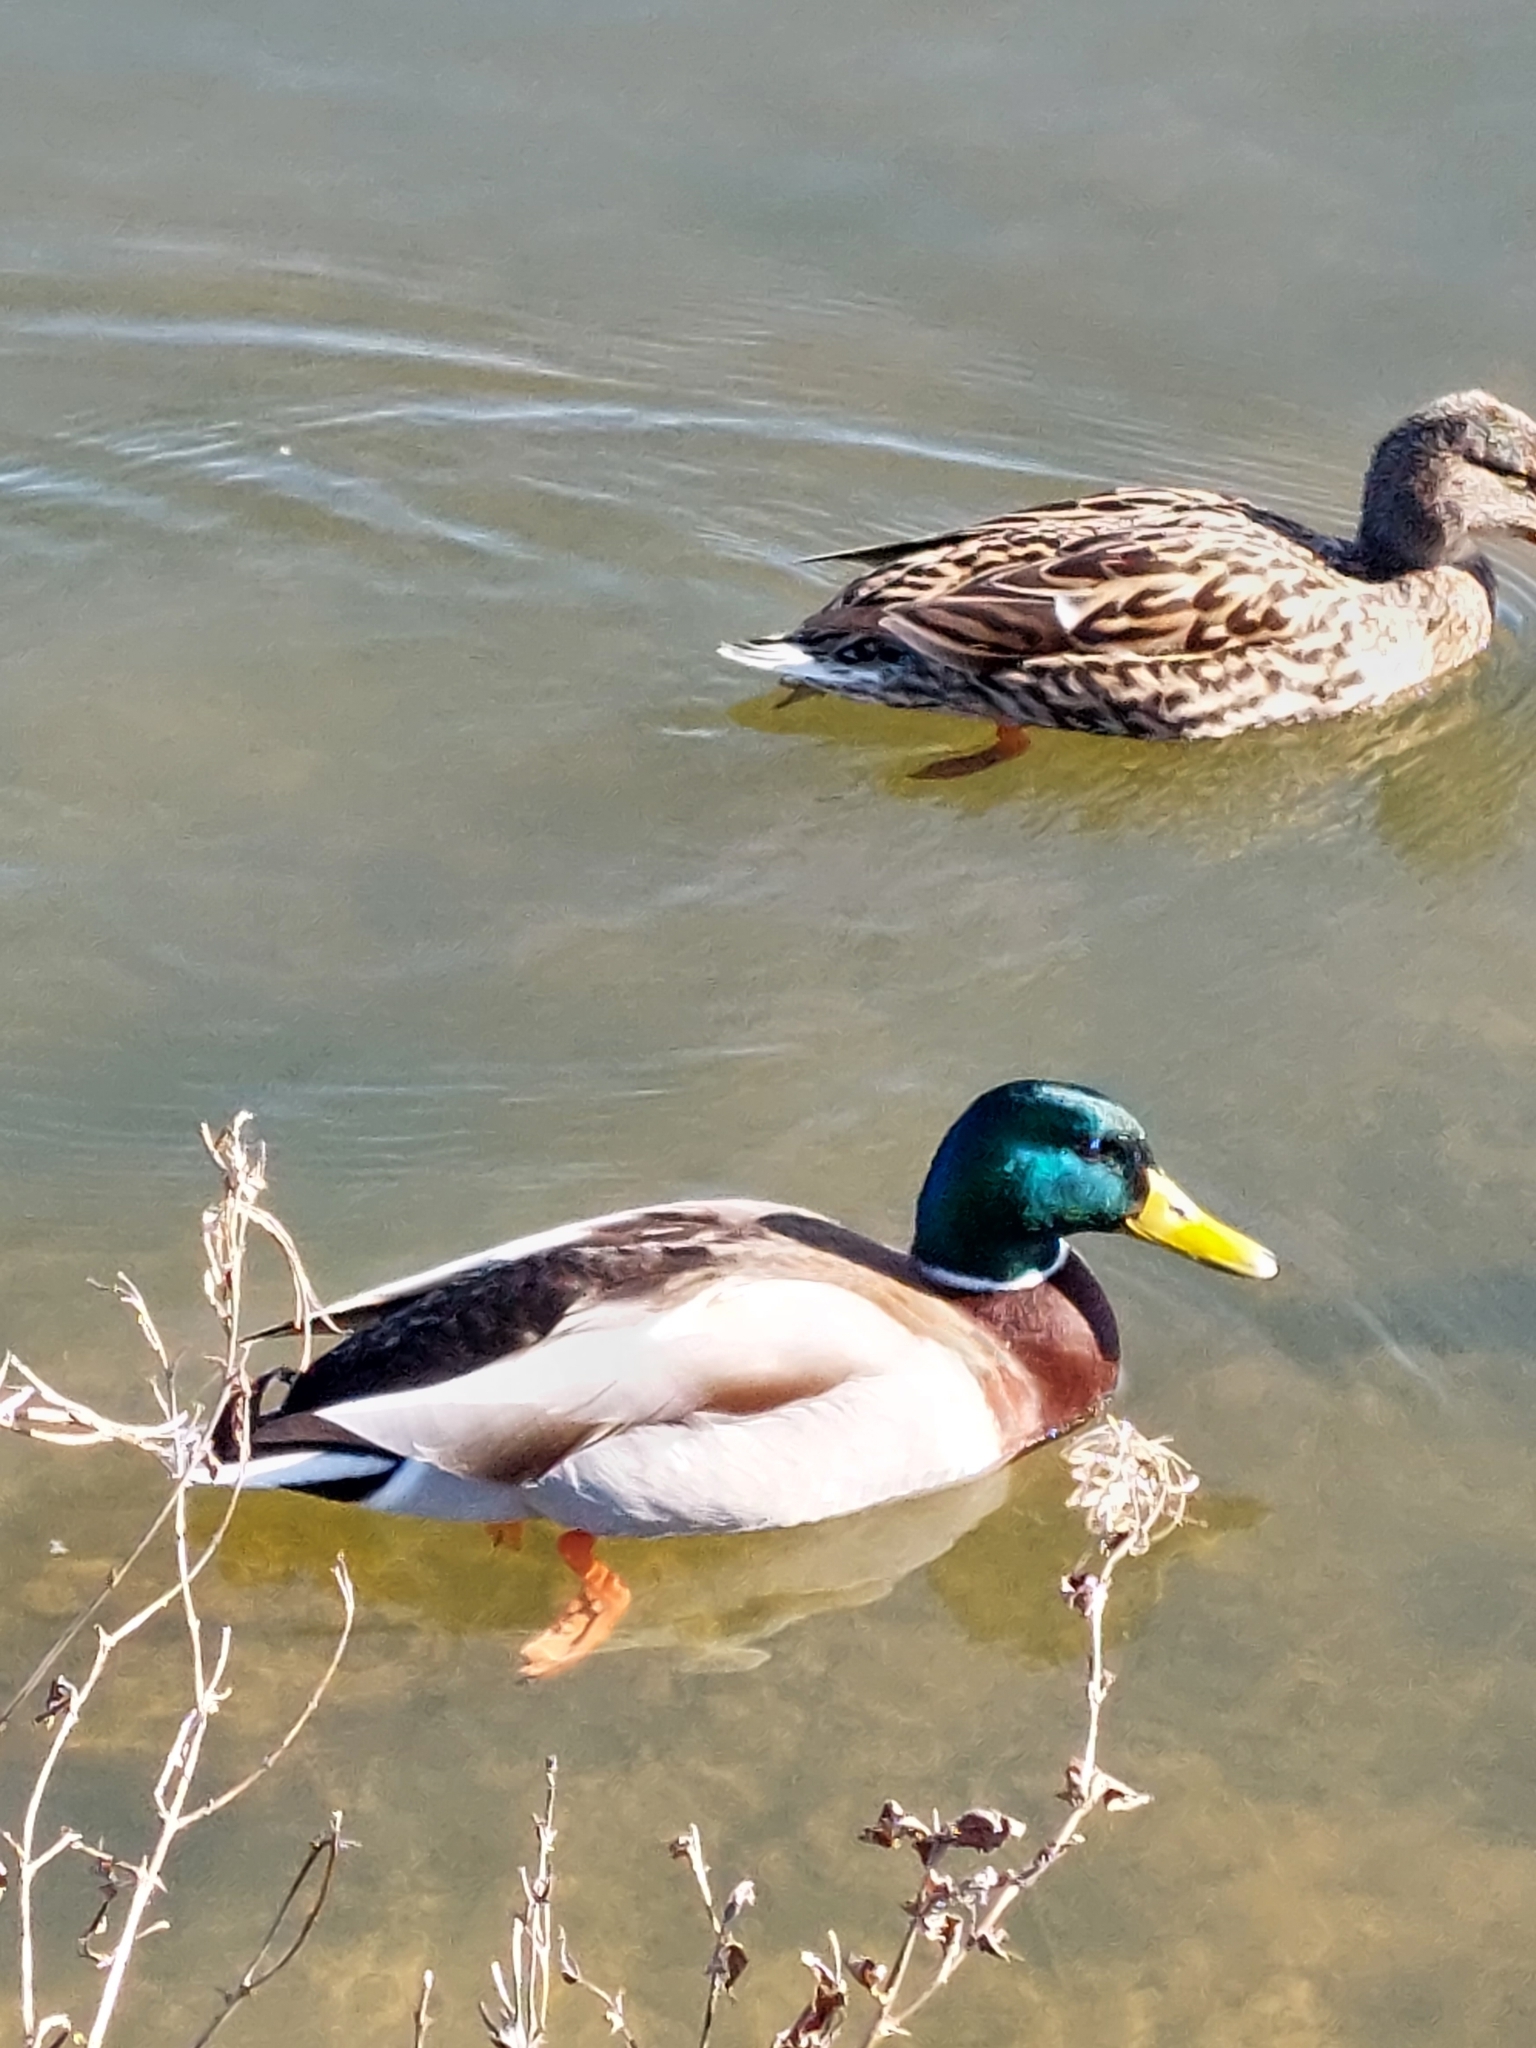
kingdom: Animalia
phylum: Chordata
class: Aves
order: Anseriformes
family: Anatidae
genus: Anas
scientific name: Anas platyrhynchos
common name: Mallard
